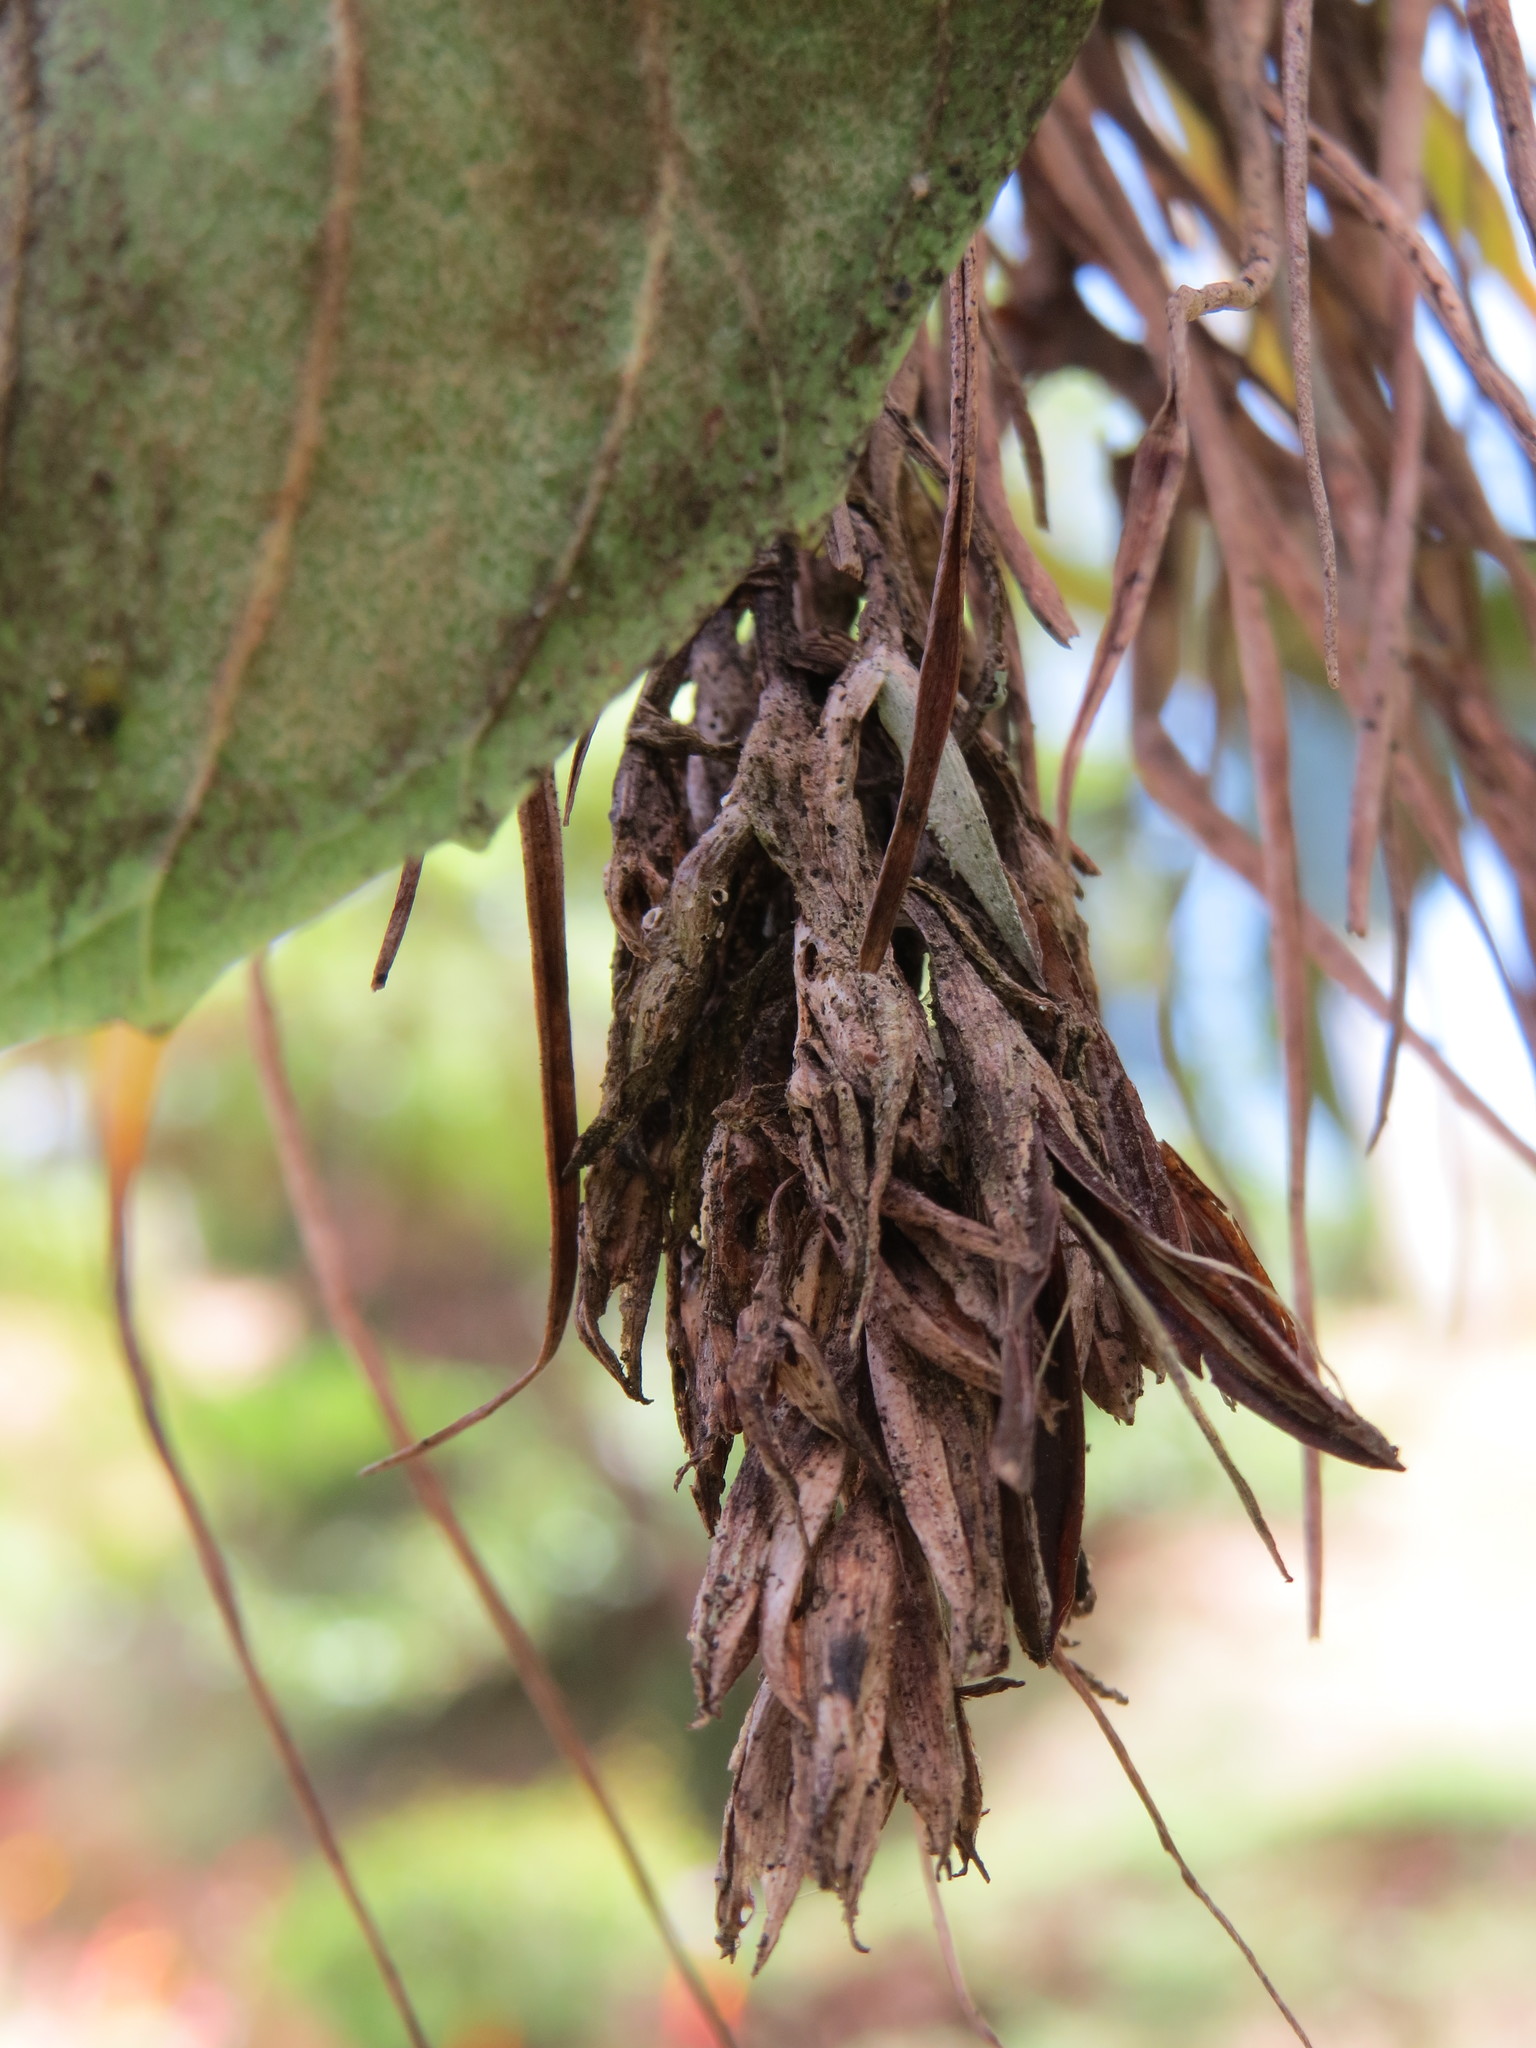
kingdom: Plantae
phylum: Tracheophyta
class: Liliopsida
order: Poales
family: Bromeliaceae
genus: Tillandsia
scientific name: Tillandsia geminiflora
